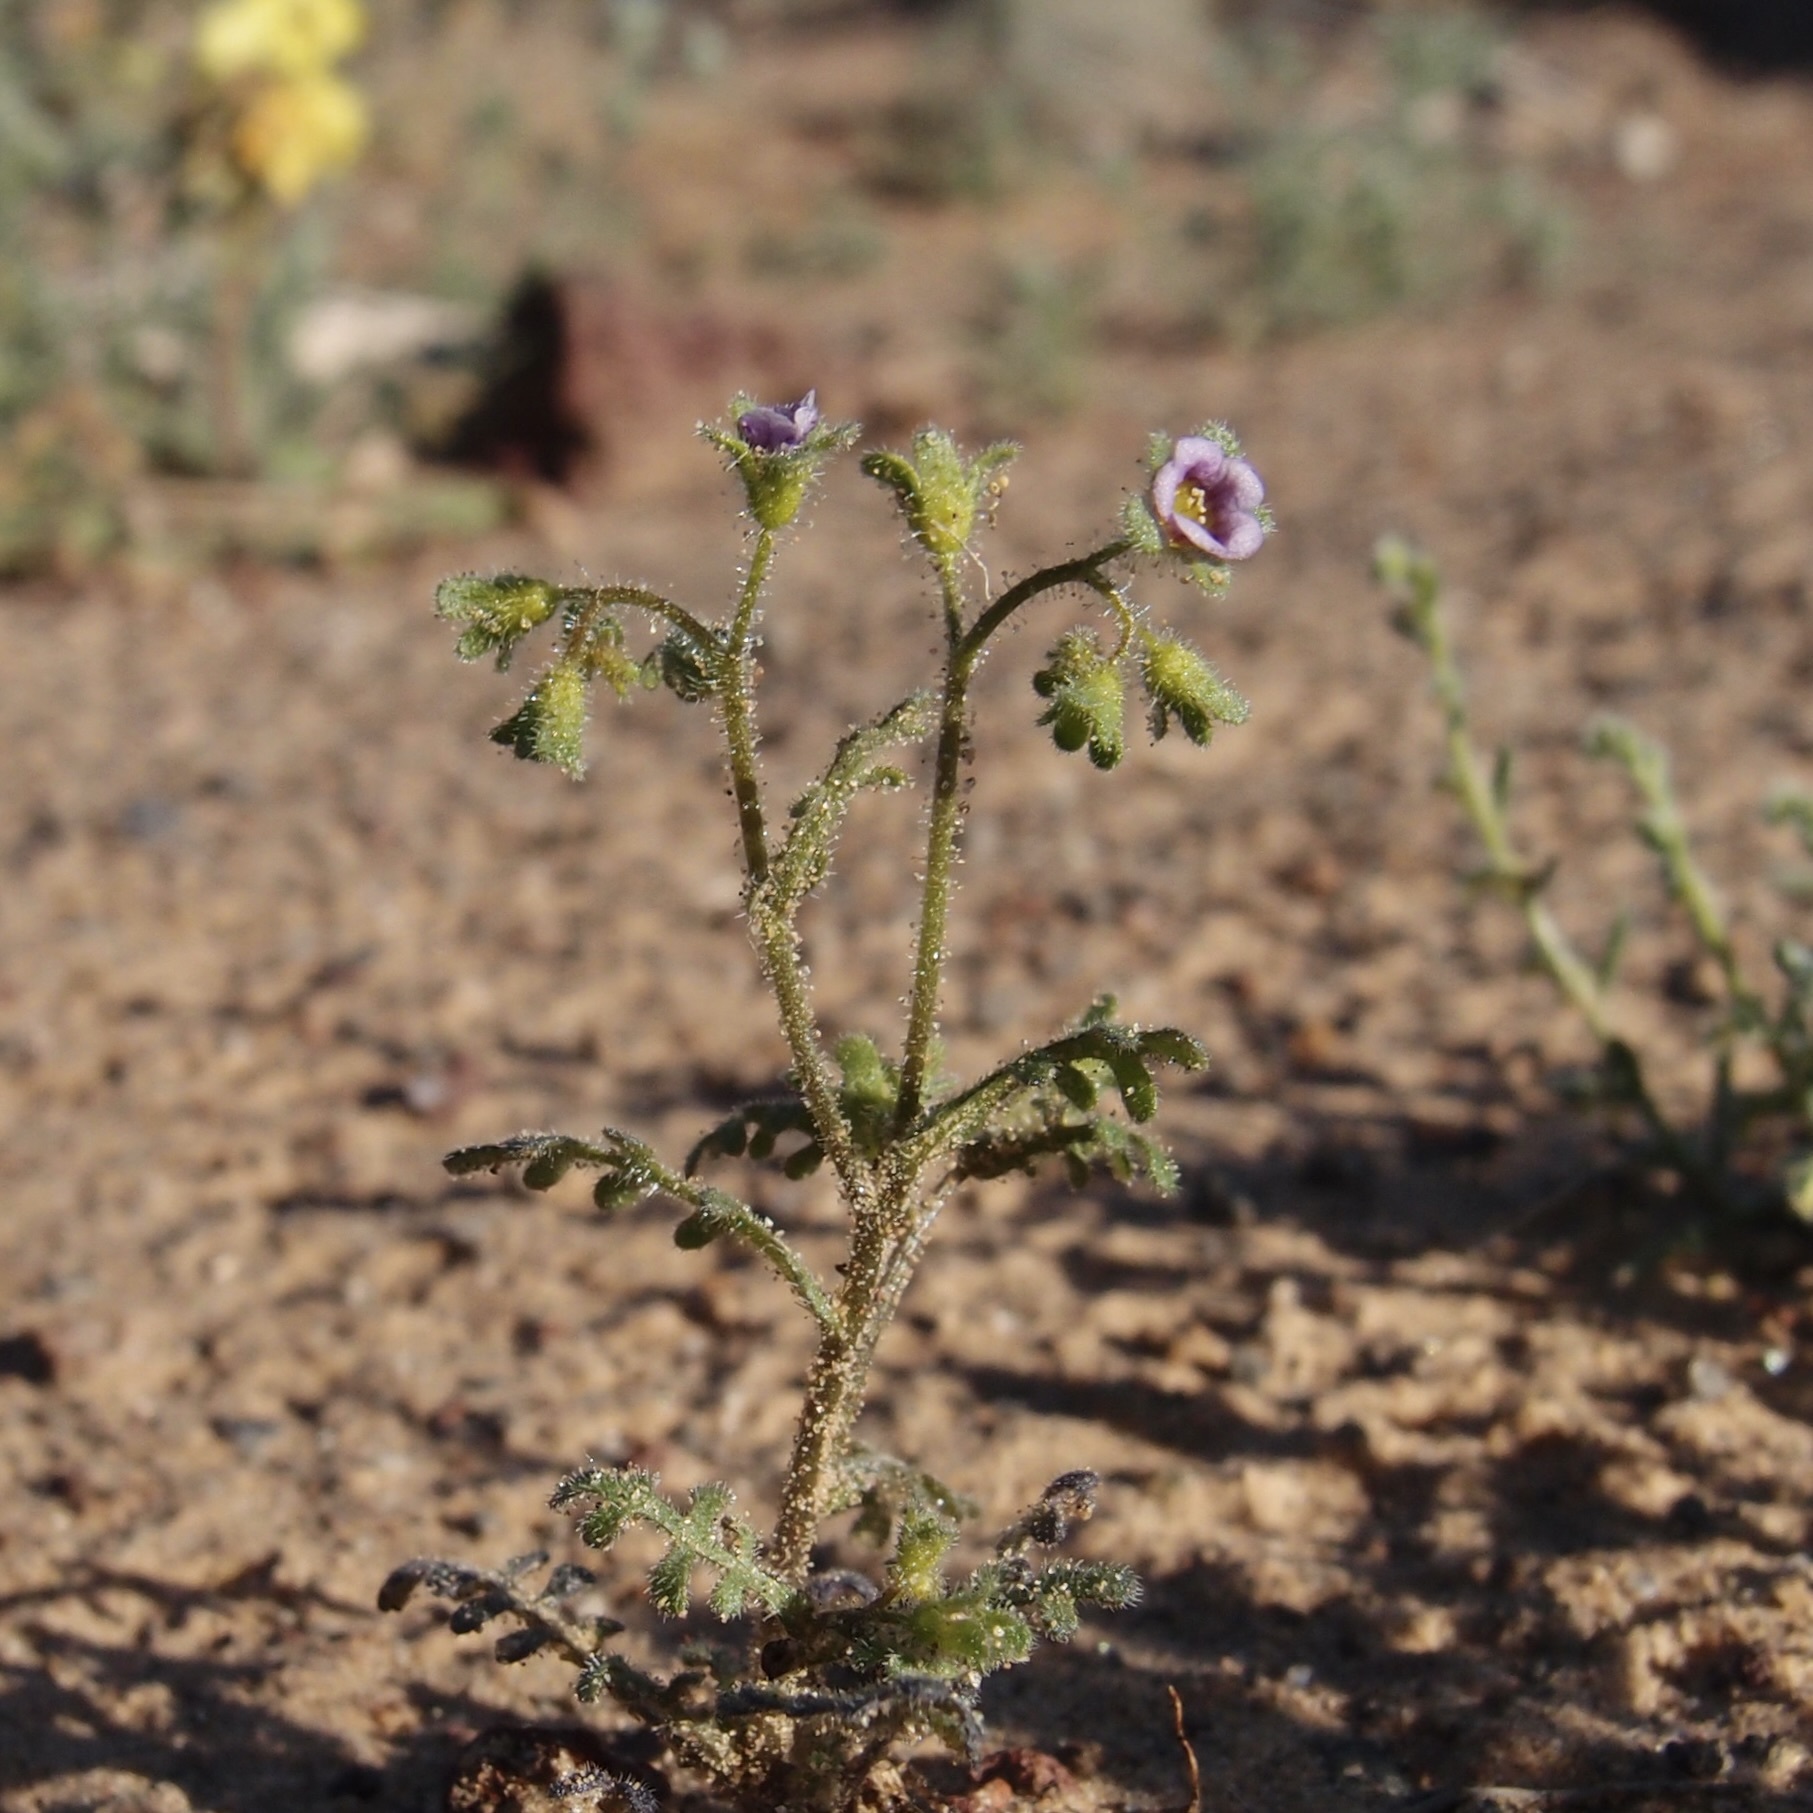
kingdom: Plantae
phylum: Tracheophyta
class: Magnoliopsida
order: Boraginales
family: Hydrophyllaceae
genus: Eucrypta
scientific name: Eucrypta micrantha
